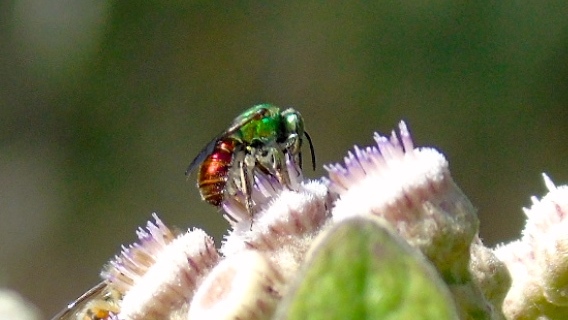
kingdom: Animalia
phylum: Arthropoda
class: Insecta
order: Hymenoptera
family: Halictidae
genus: Augochloropsis
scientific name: Augochloropsis
